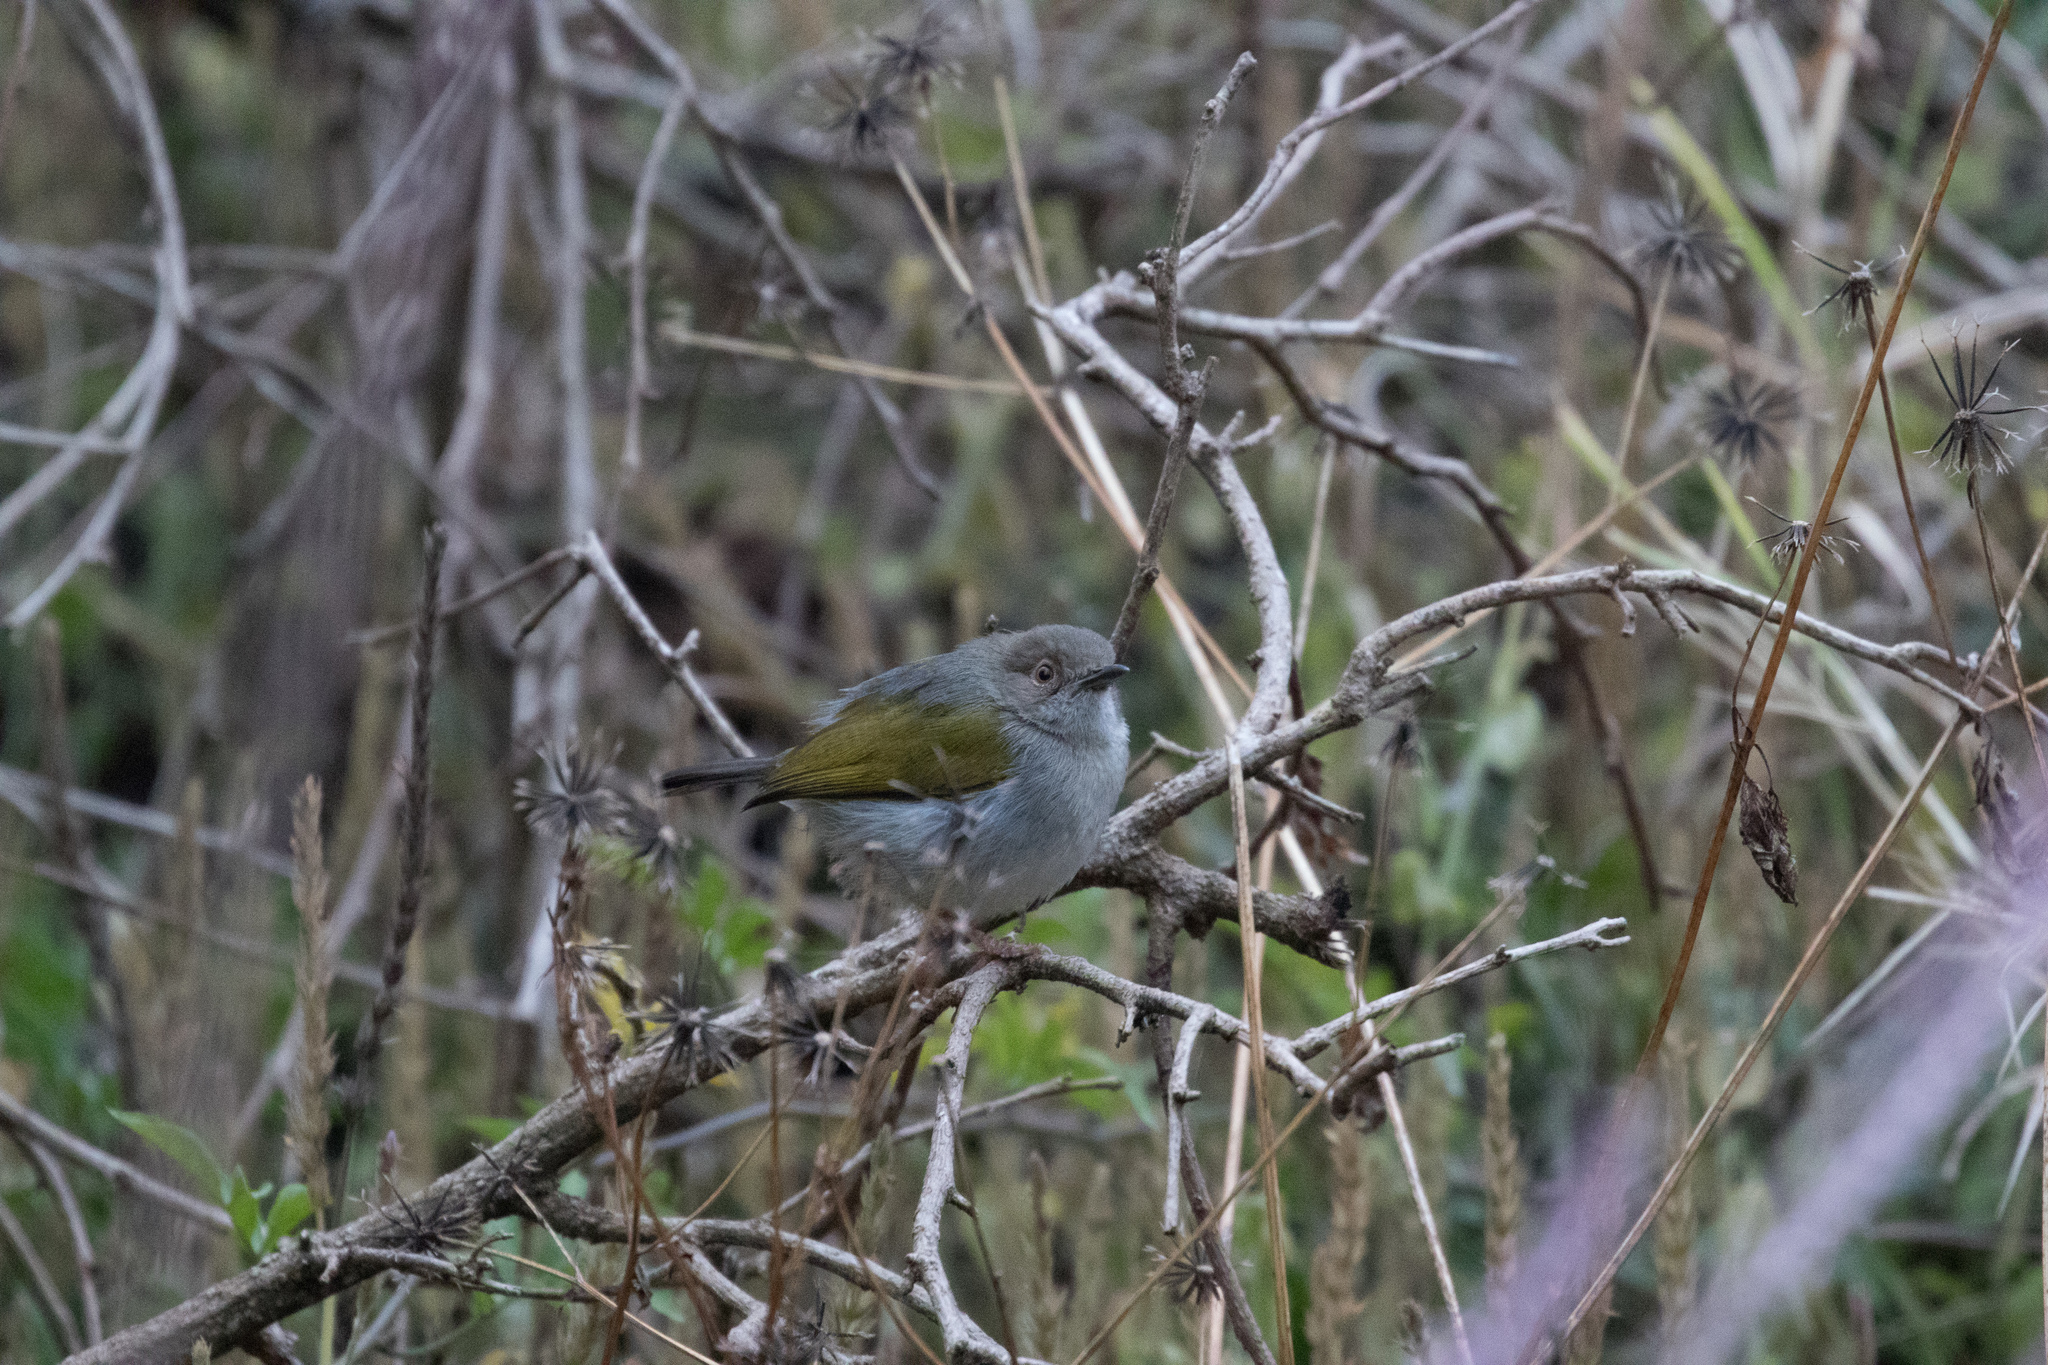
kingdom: Animalia
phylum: Chordata
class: Aves
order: Passeriformes
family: Cisticolidae
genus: Camaroptera
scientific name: Camaroptera brachyura
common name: Green-backed camaroptera
